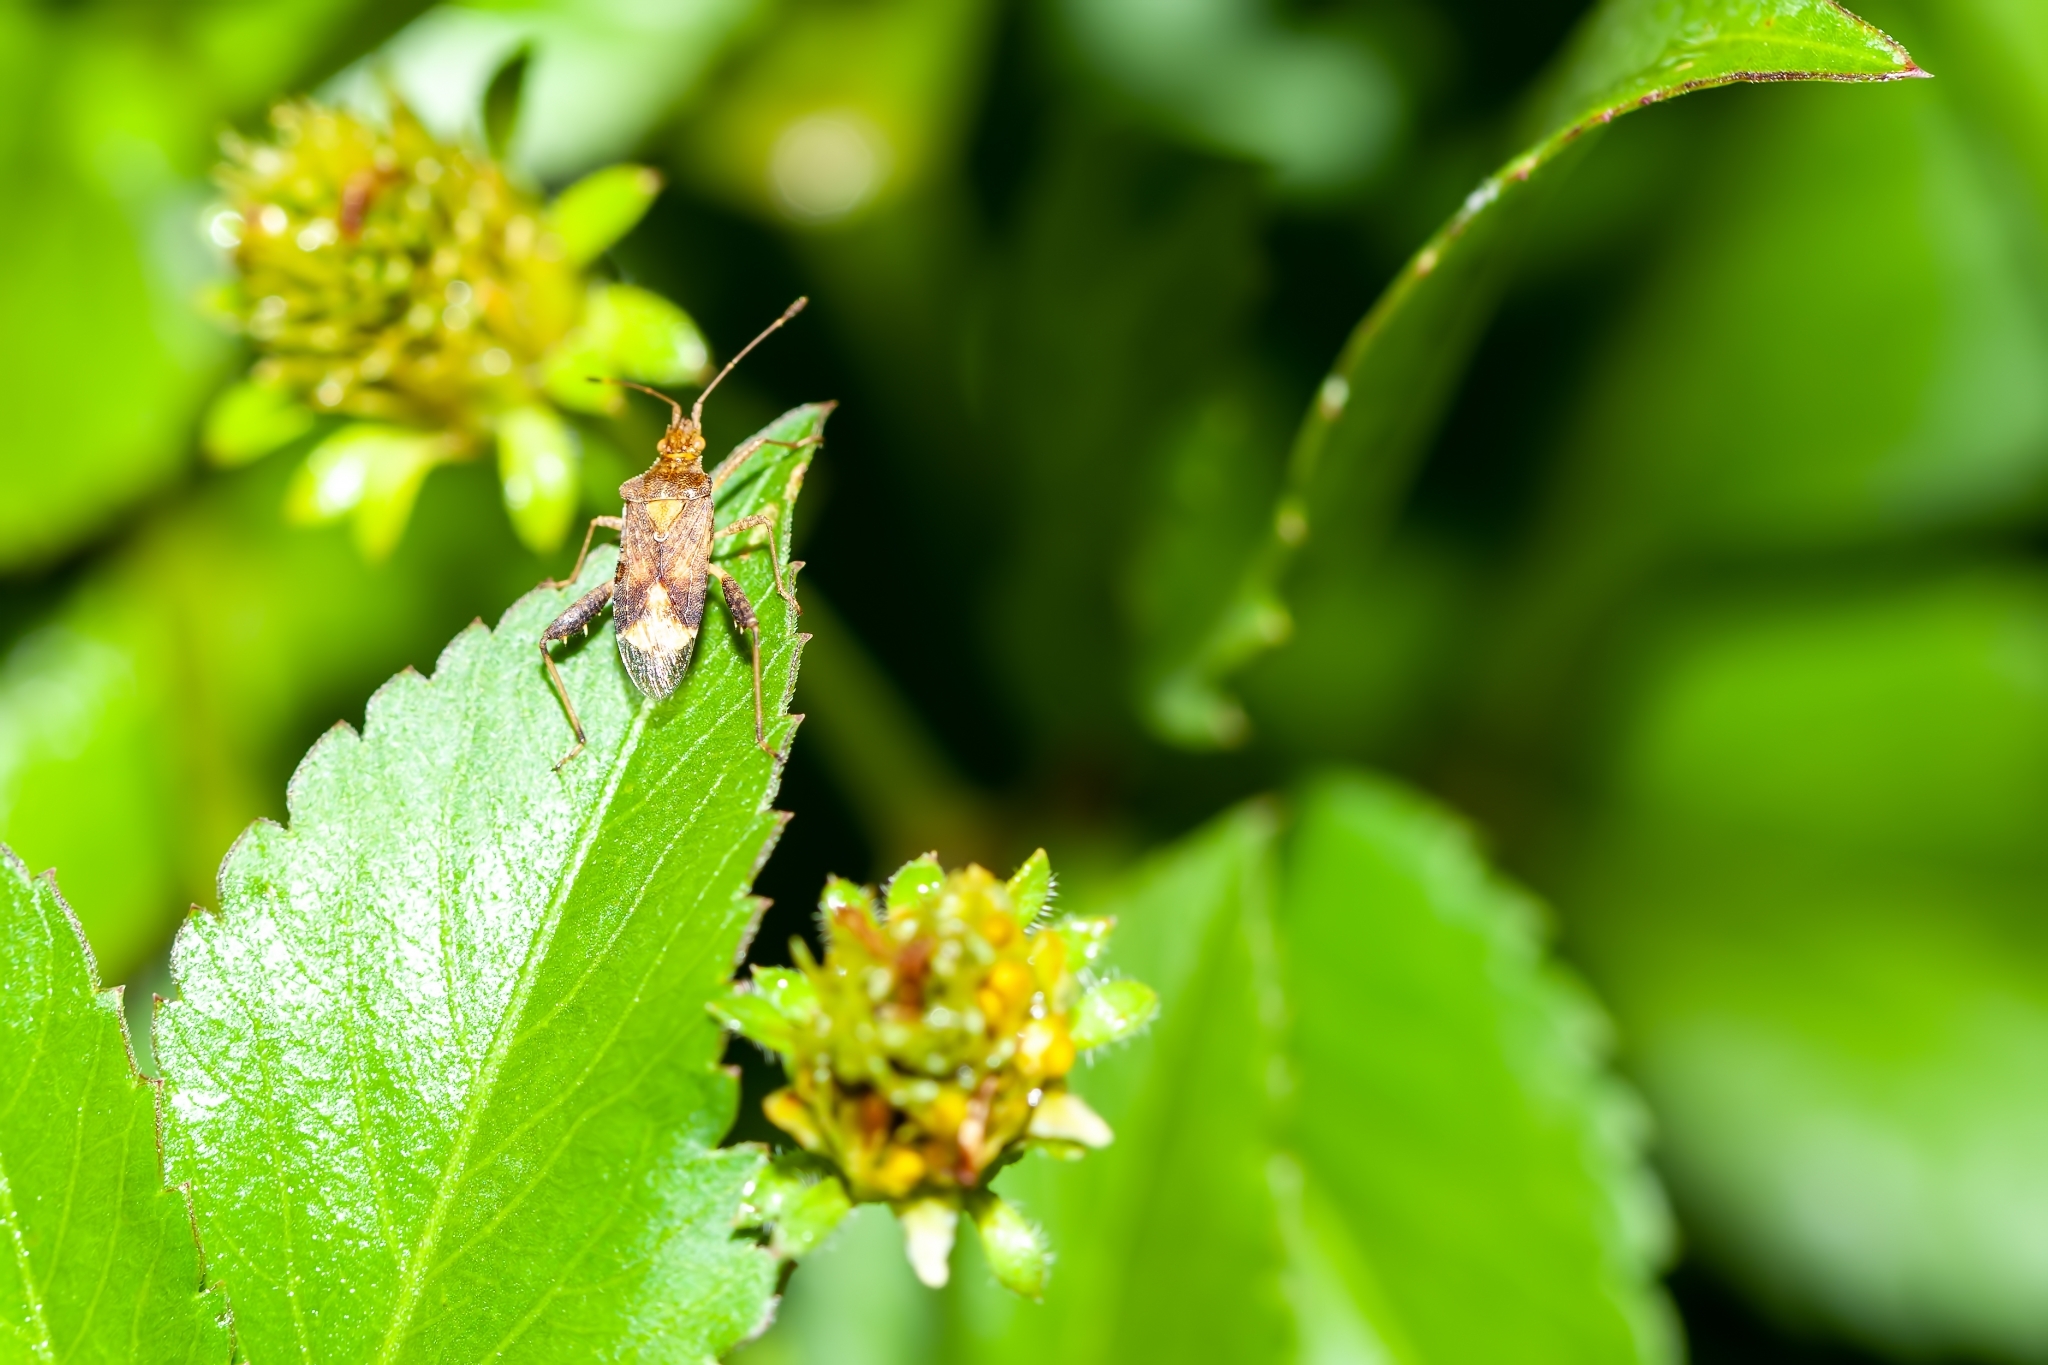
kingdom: Animalia
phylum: Arthropoda
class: Insecta
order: Hemiptera
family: Rhopalidae
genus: Harmostes
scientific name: Harmostes serratus
